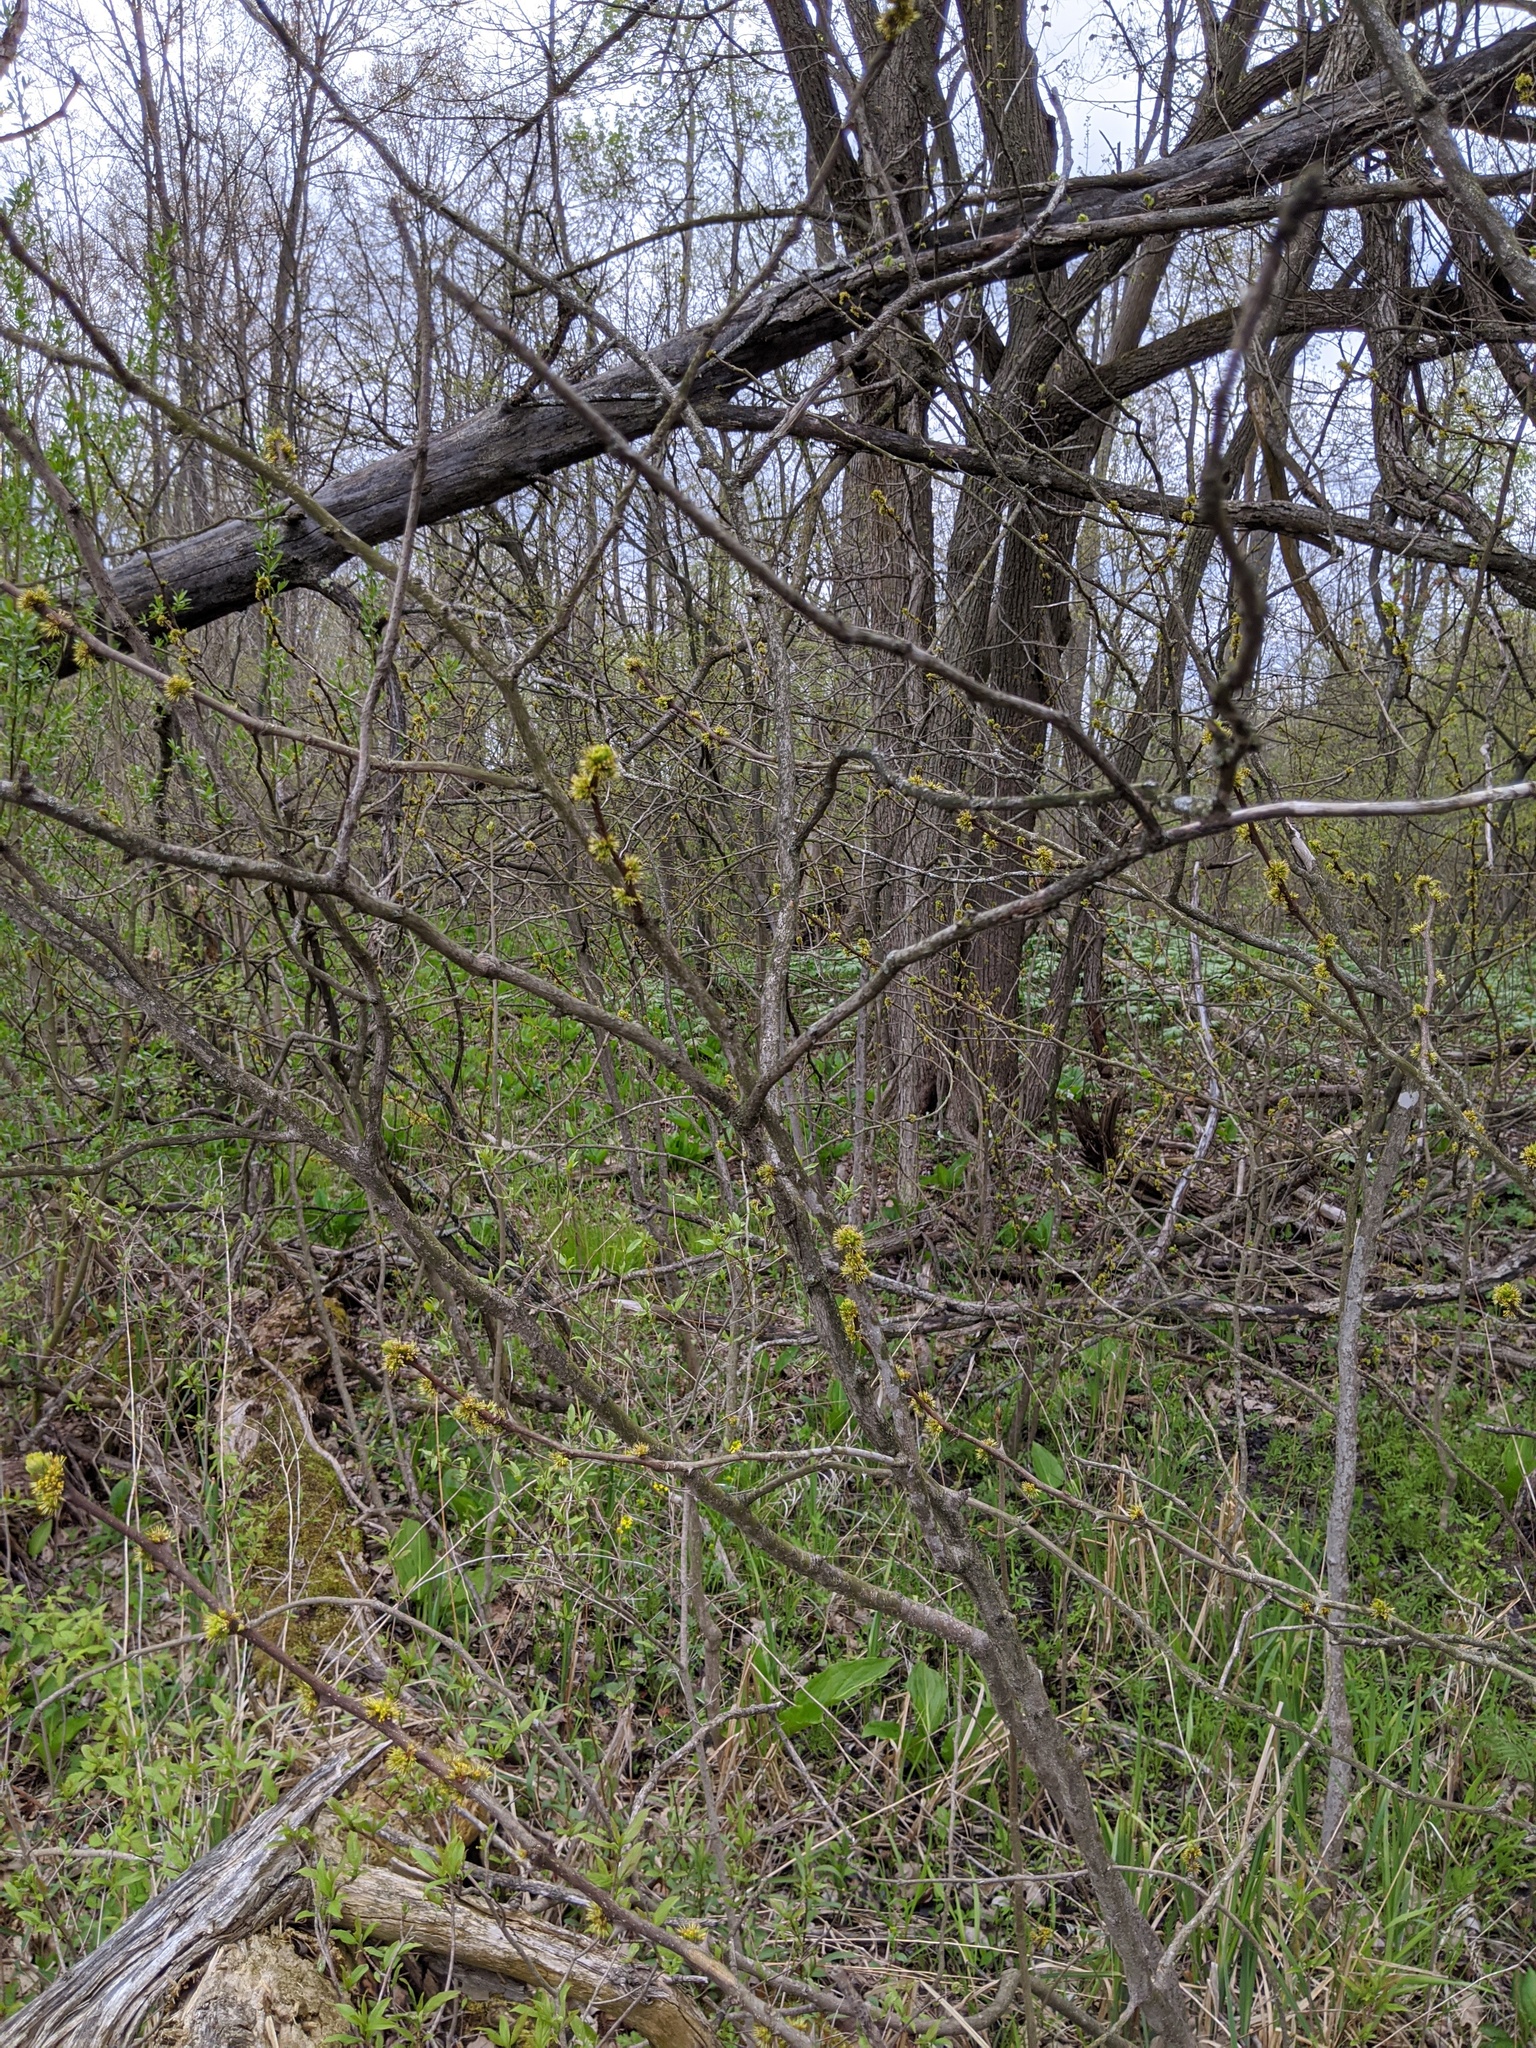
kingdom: Plantae
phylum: Tracheophyta
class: Magnoliopsida
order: Sapindales
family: Rutaceae
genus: Zanthoxylum
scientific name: Zanthoxylum americanum
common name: Northern prickly-ash
